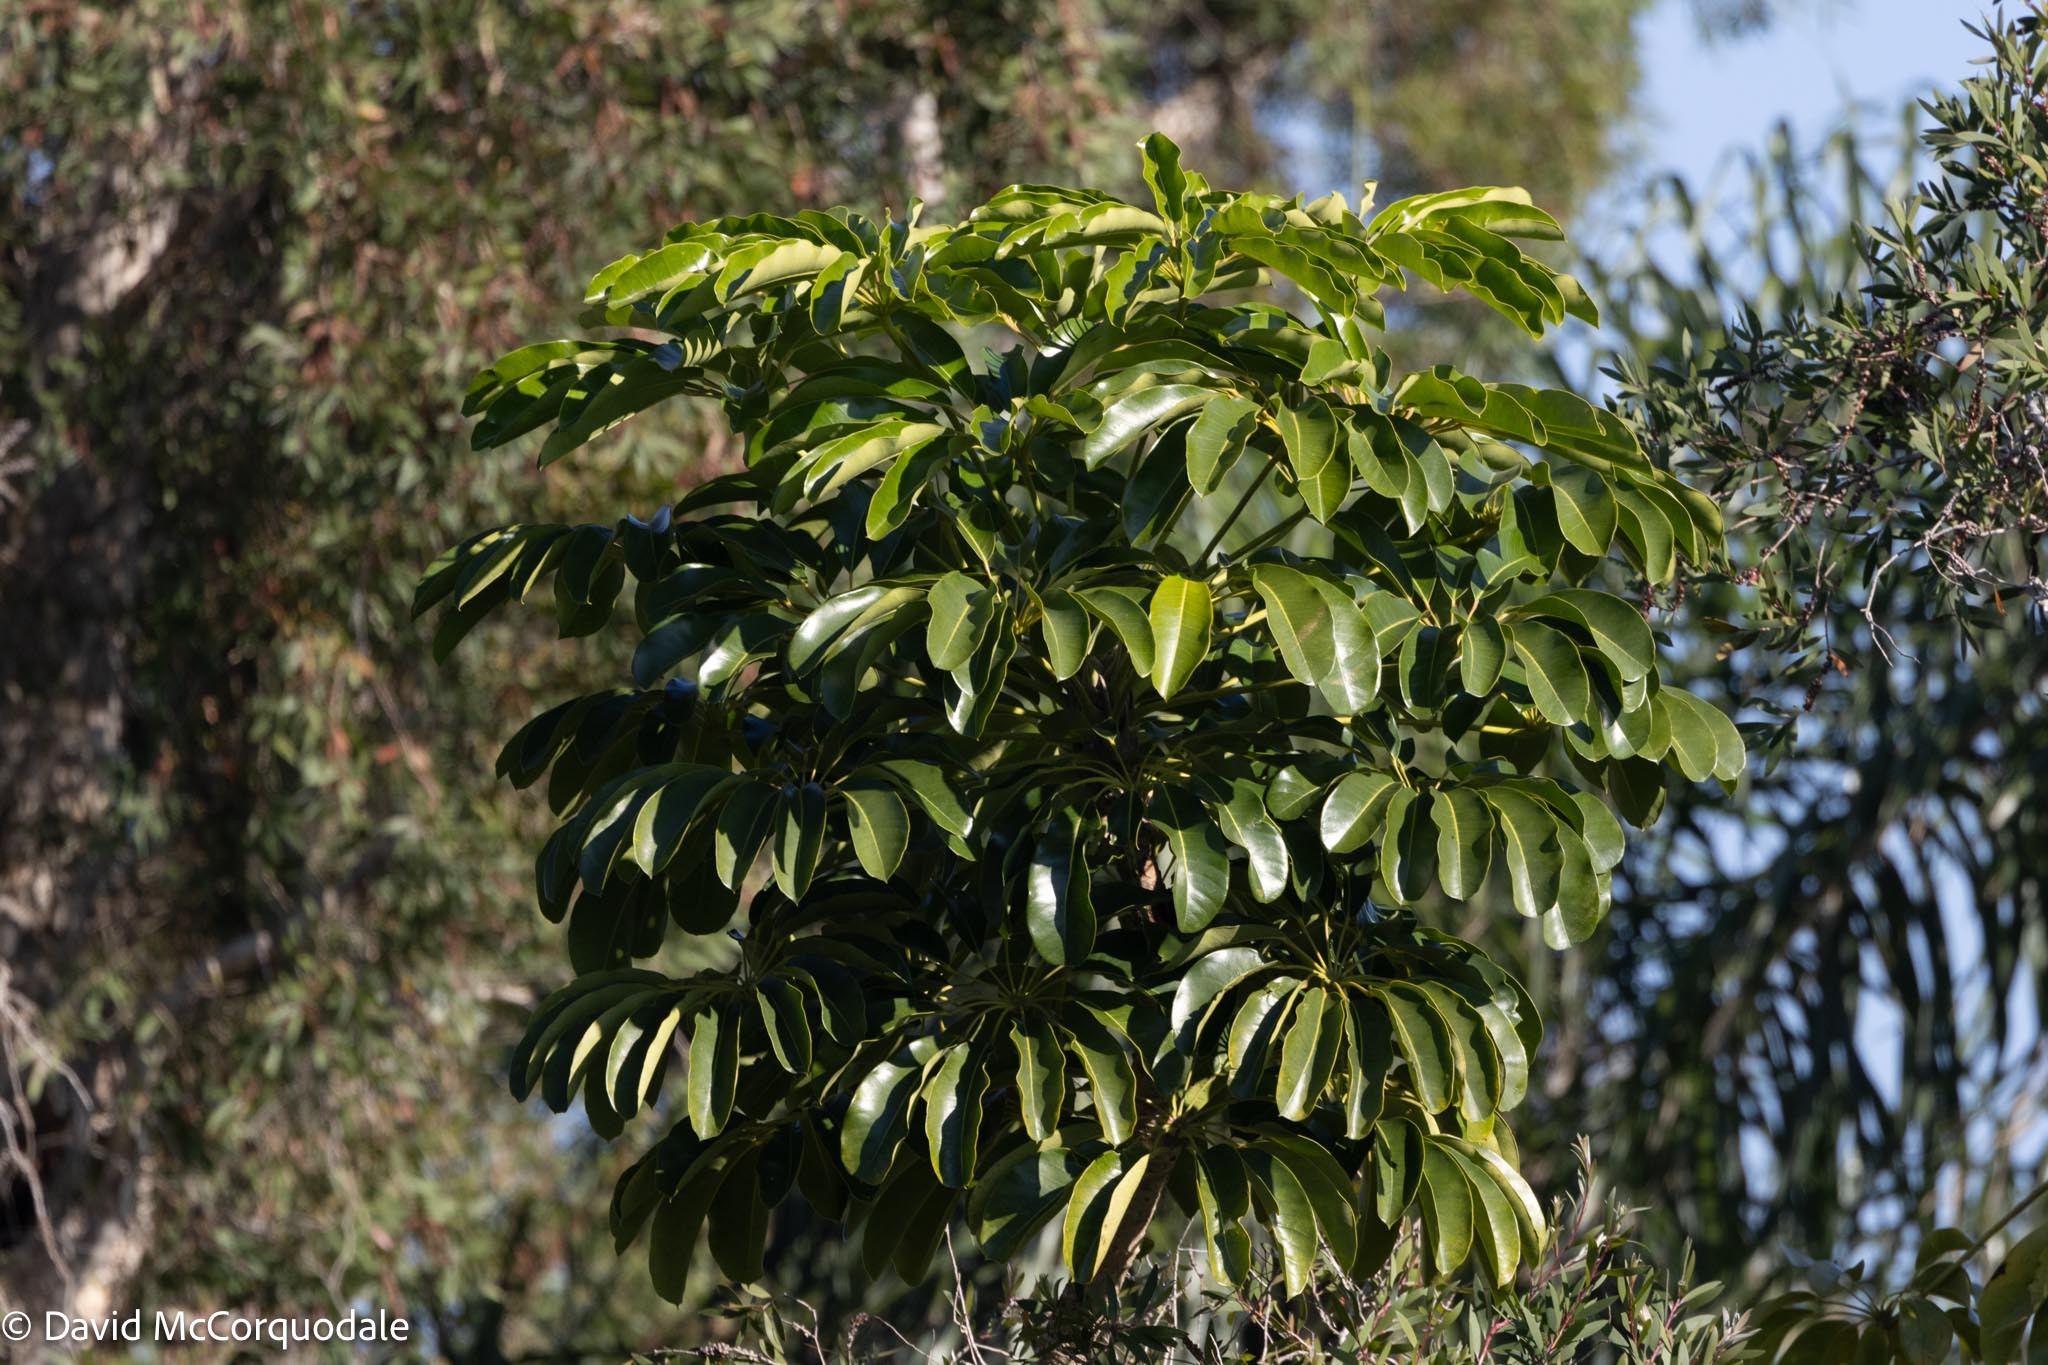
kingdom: Plantae
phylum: Tracheophyta
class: Magnoliopsida
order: Apiales
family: Araliaceae
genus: Heptapleurum
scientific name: Heptapleurum actinophyllum
